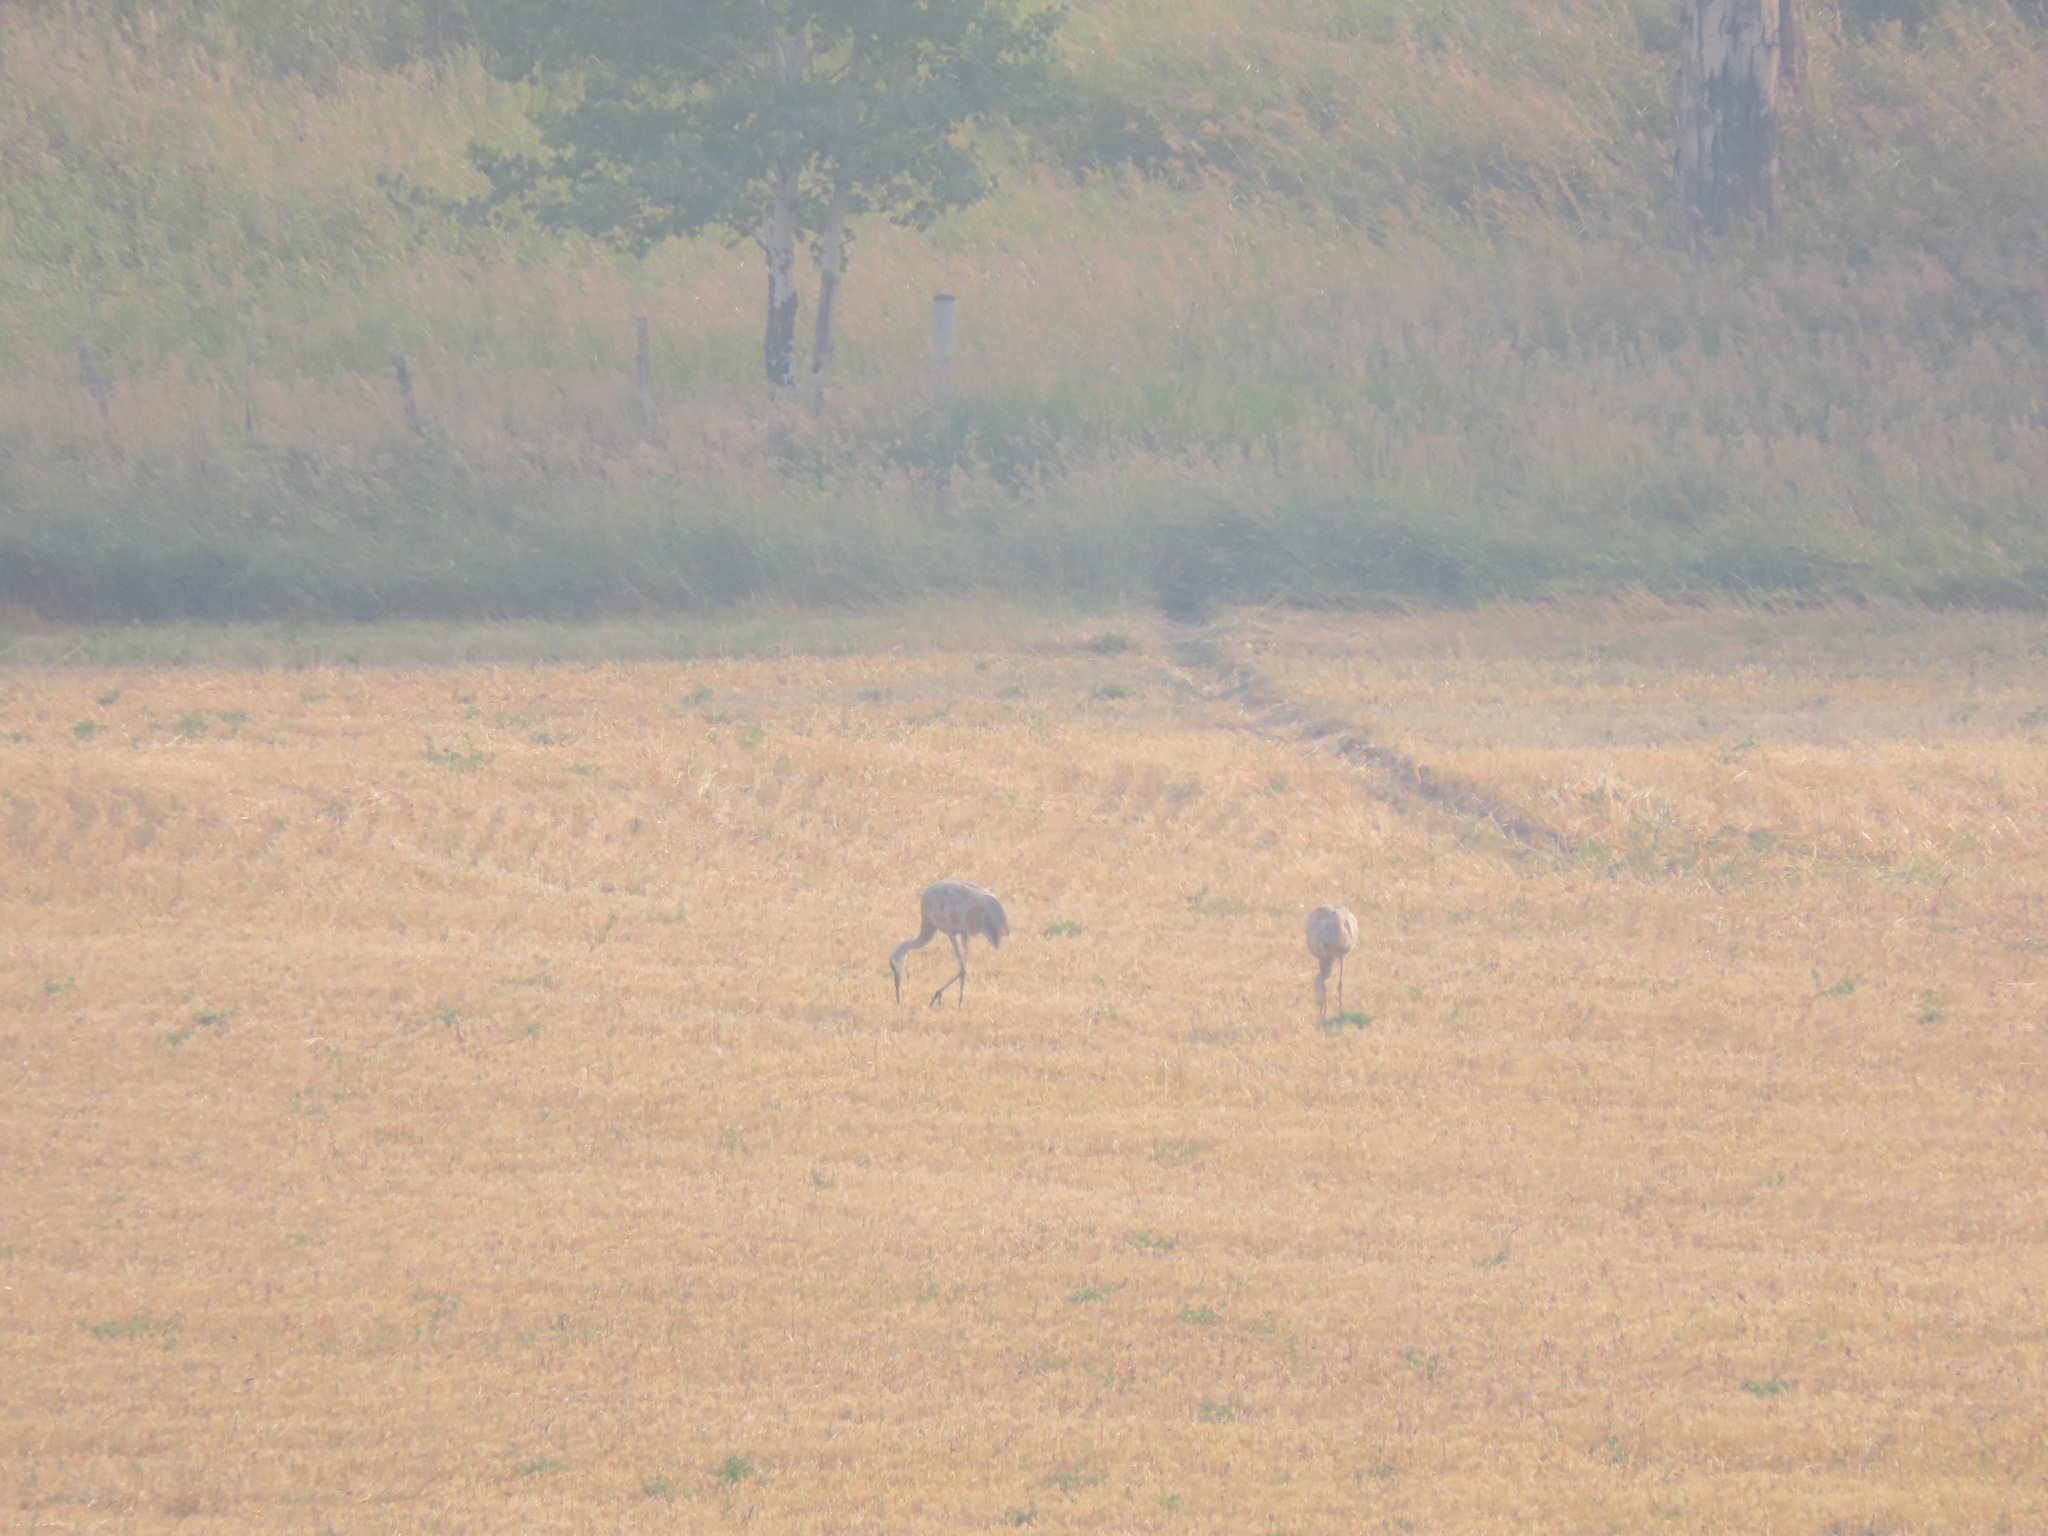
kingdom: Animalia
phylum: Chordata
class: Aves
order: Gruiformes
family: Gruidae
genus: Grus
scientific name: Grus canadensis
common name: Sandhill crane
